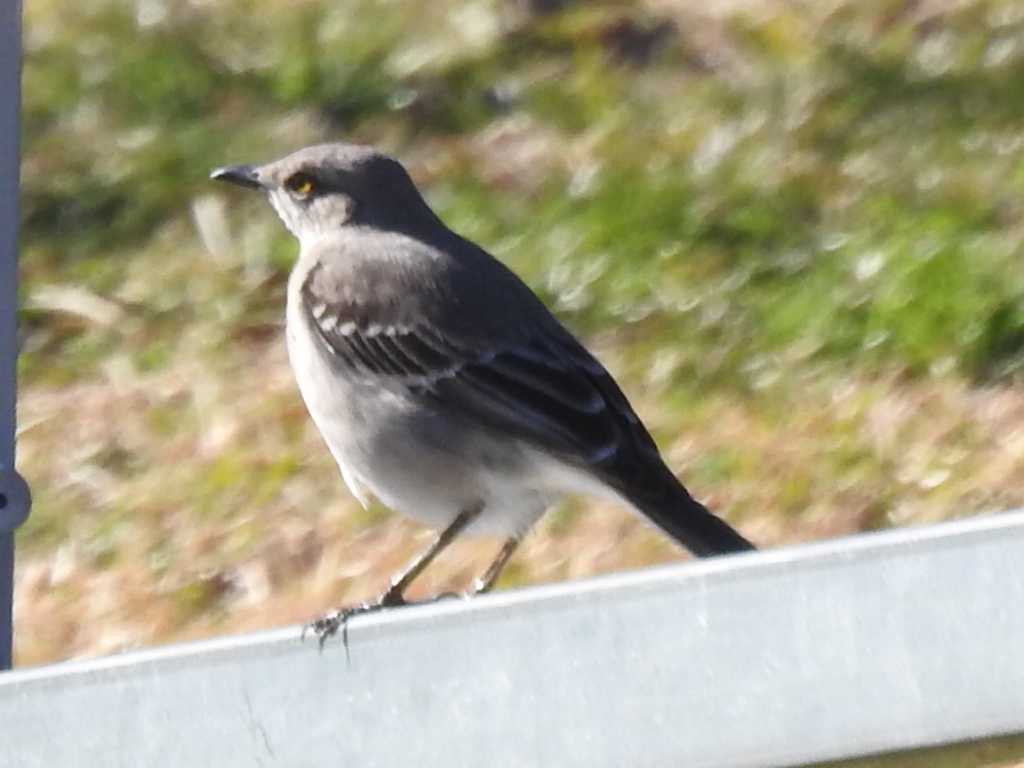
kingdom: Animalia
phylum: Chordata
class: Aves
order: Passeriformes
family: Mimidae
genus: Mimus
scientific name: Mimus polyglottos
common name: Northern mockingbird
